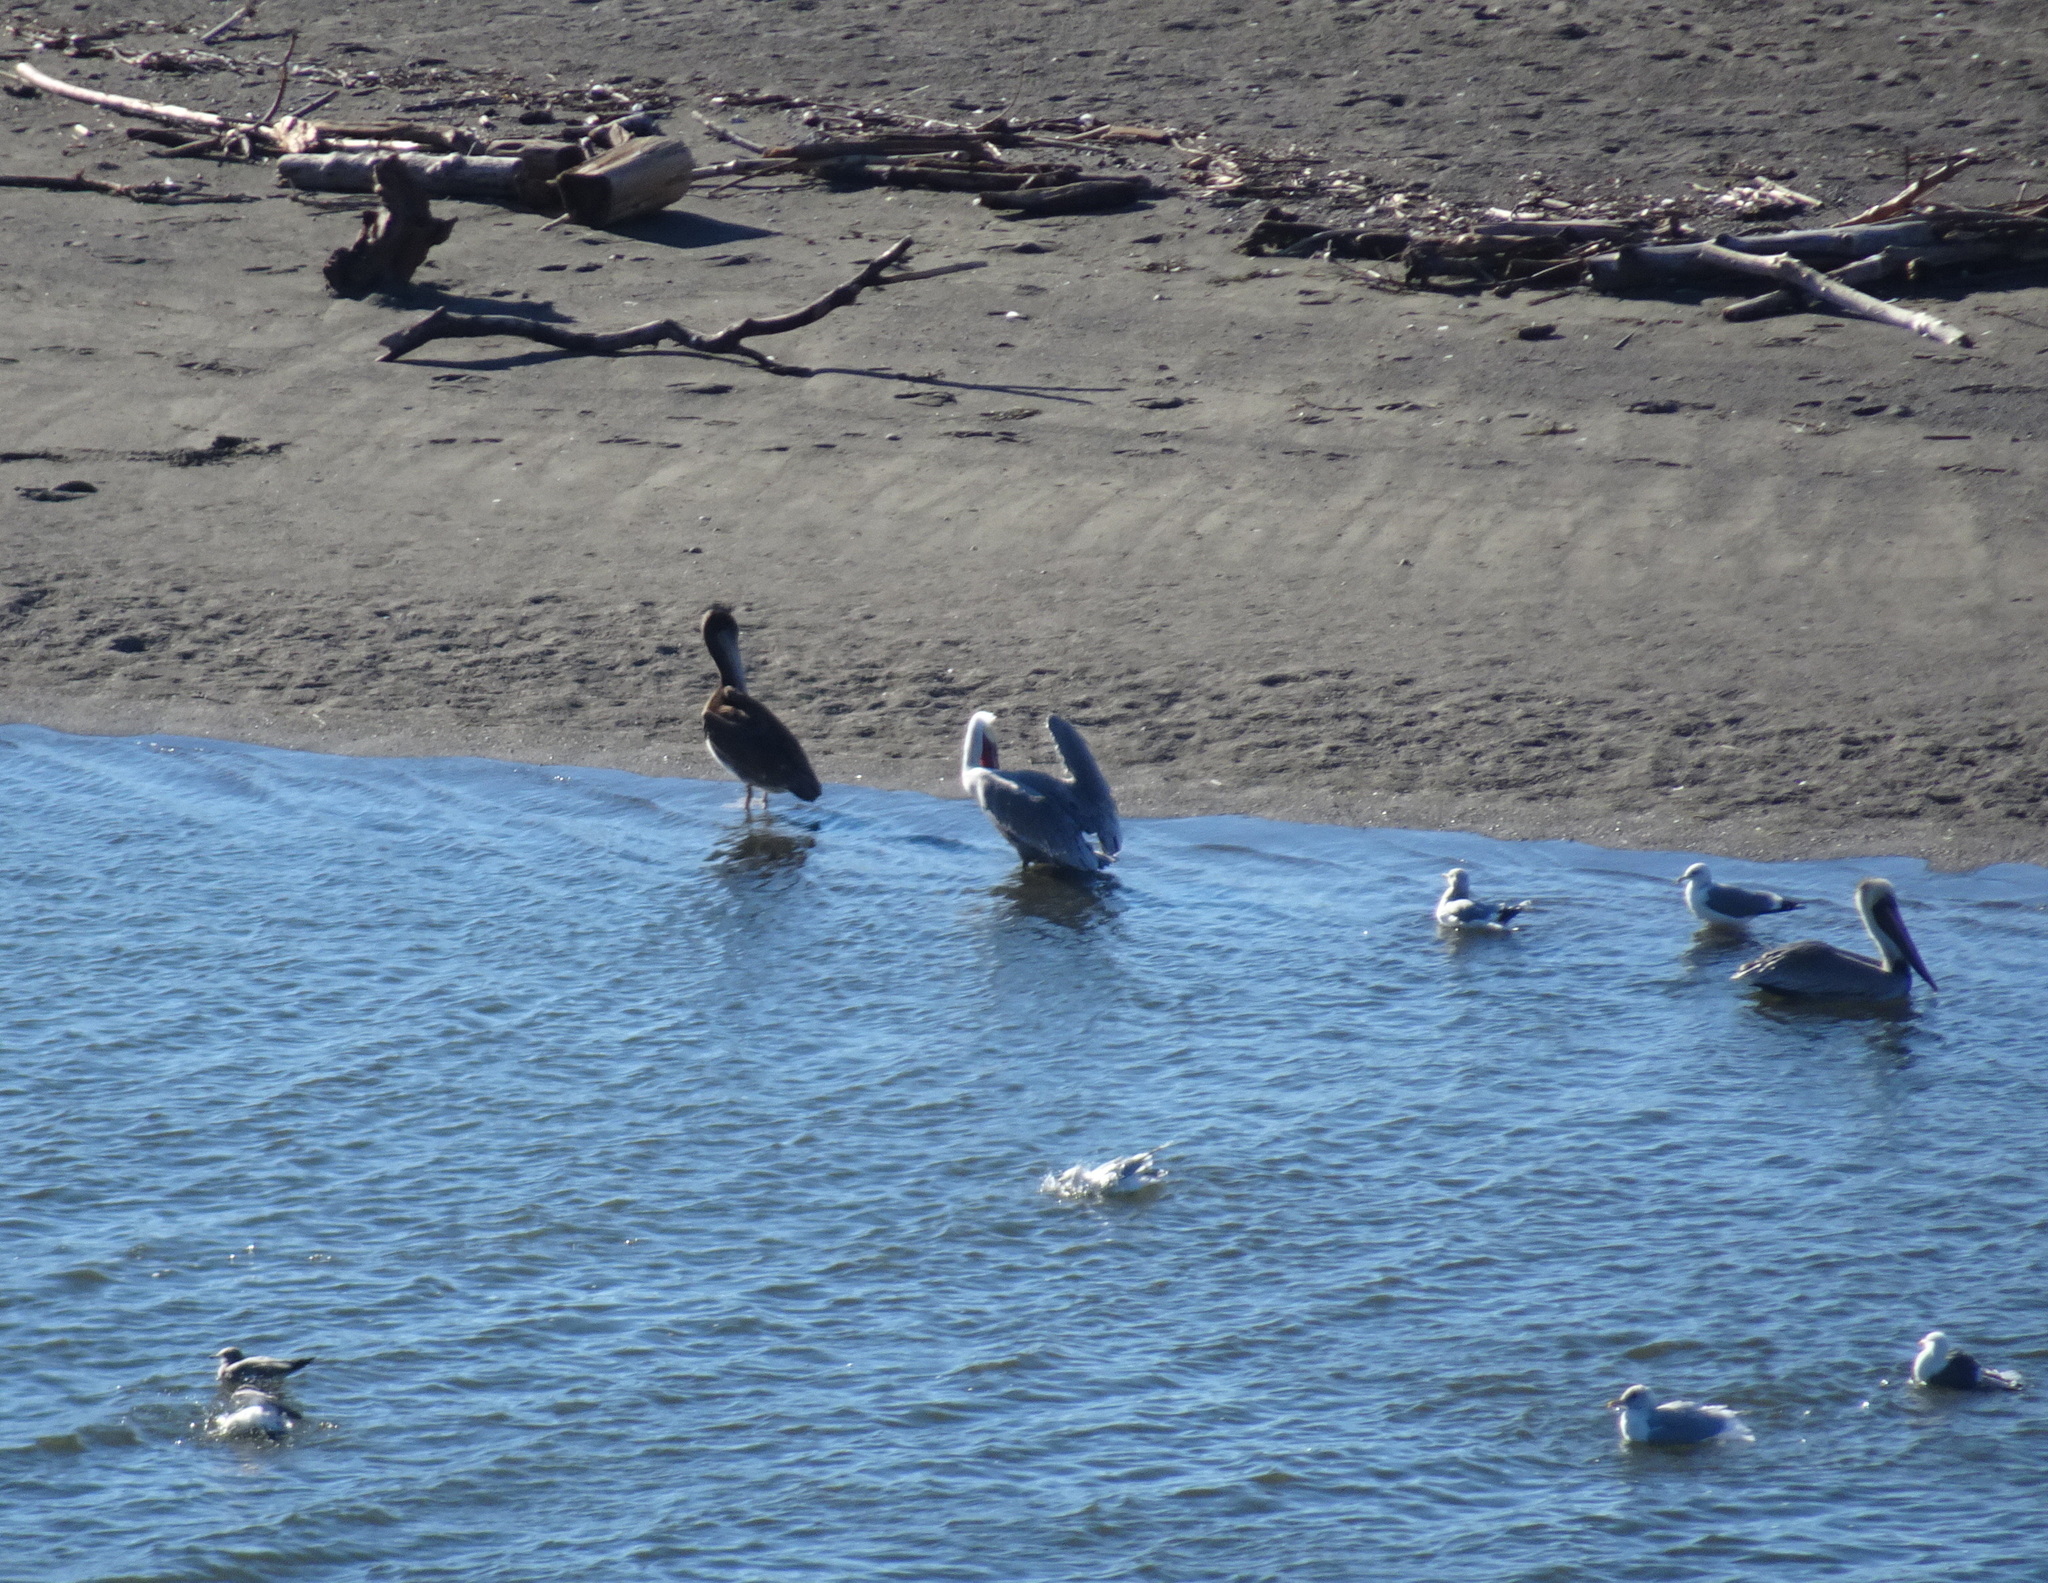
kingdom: Animalia
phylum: Chordata
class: Aves
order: Pelecaniformes
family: Pelecanidae
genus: Pelecanus
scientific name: Pelecanus occidentalis
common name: Brown pelican
